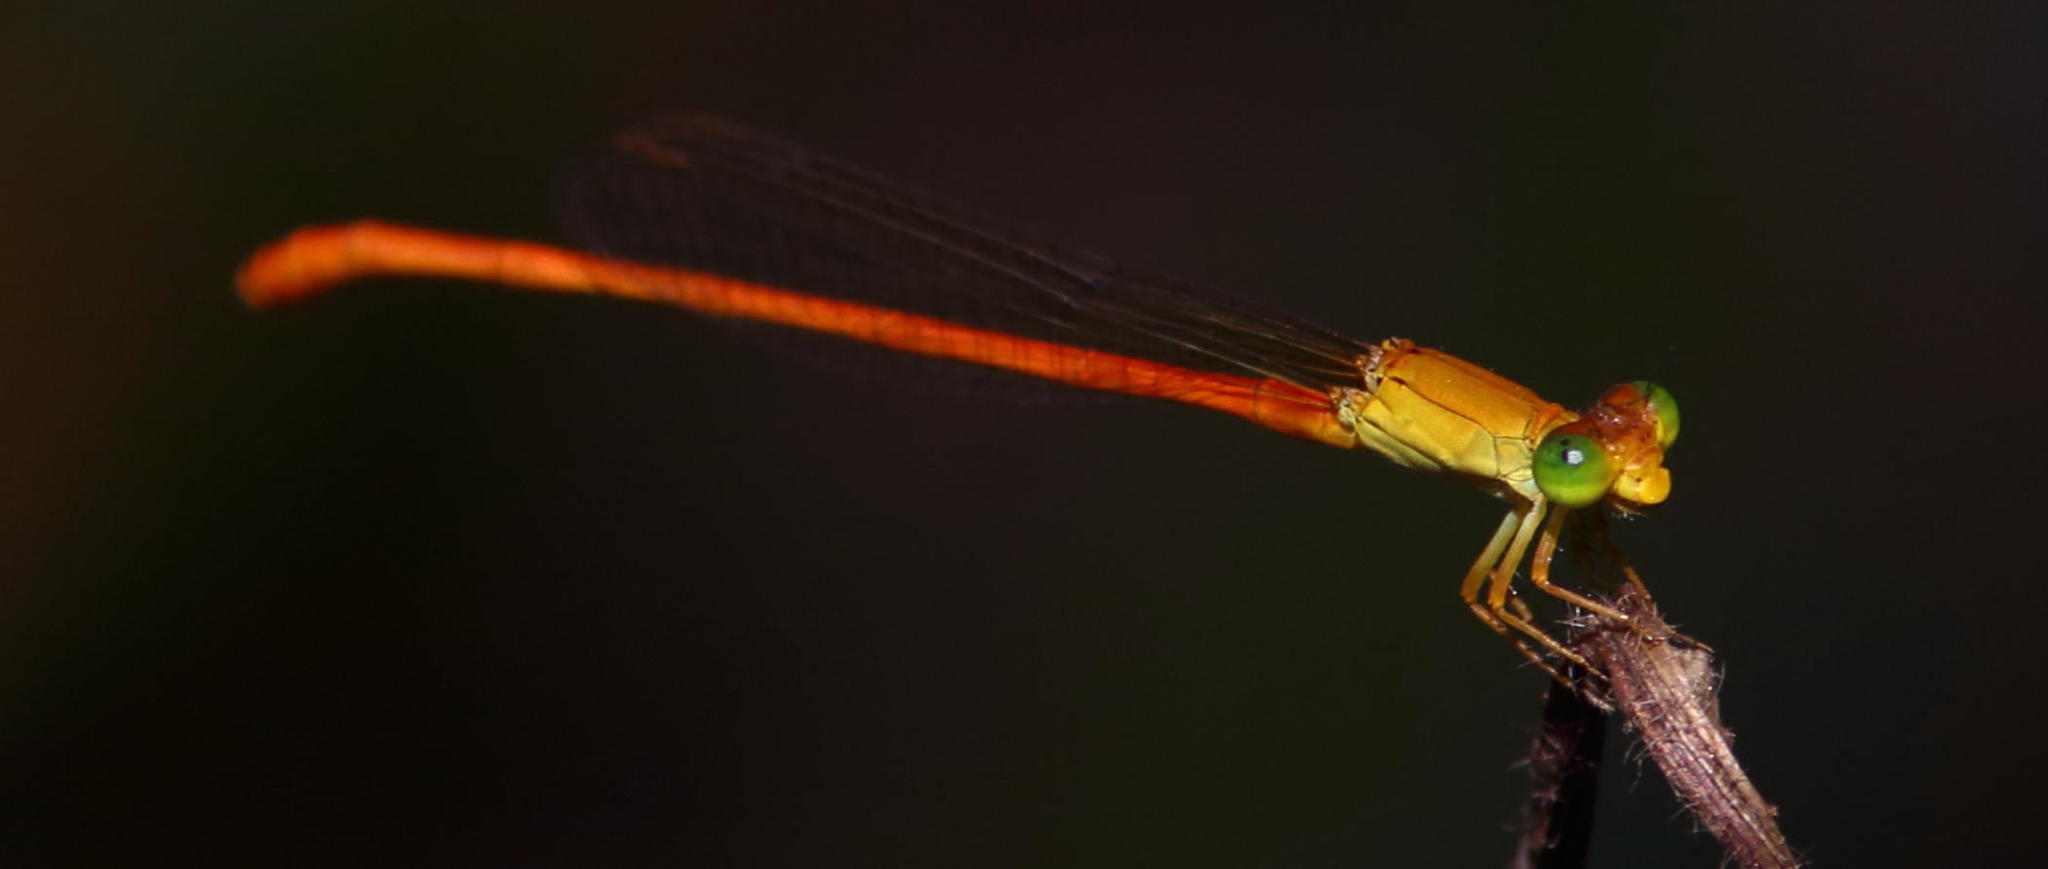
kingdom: Animalia
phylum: Arthropoda
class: Insecta
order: Odonata
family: Coenagrionidae
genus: Ceriagrion
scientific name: Ceriagrion glabrum
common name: Common pond damsel
